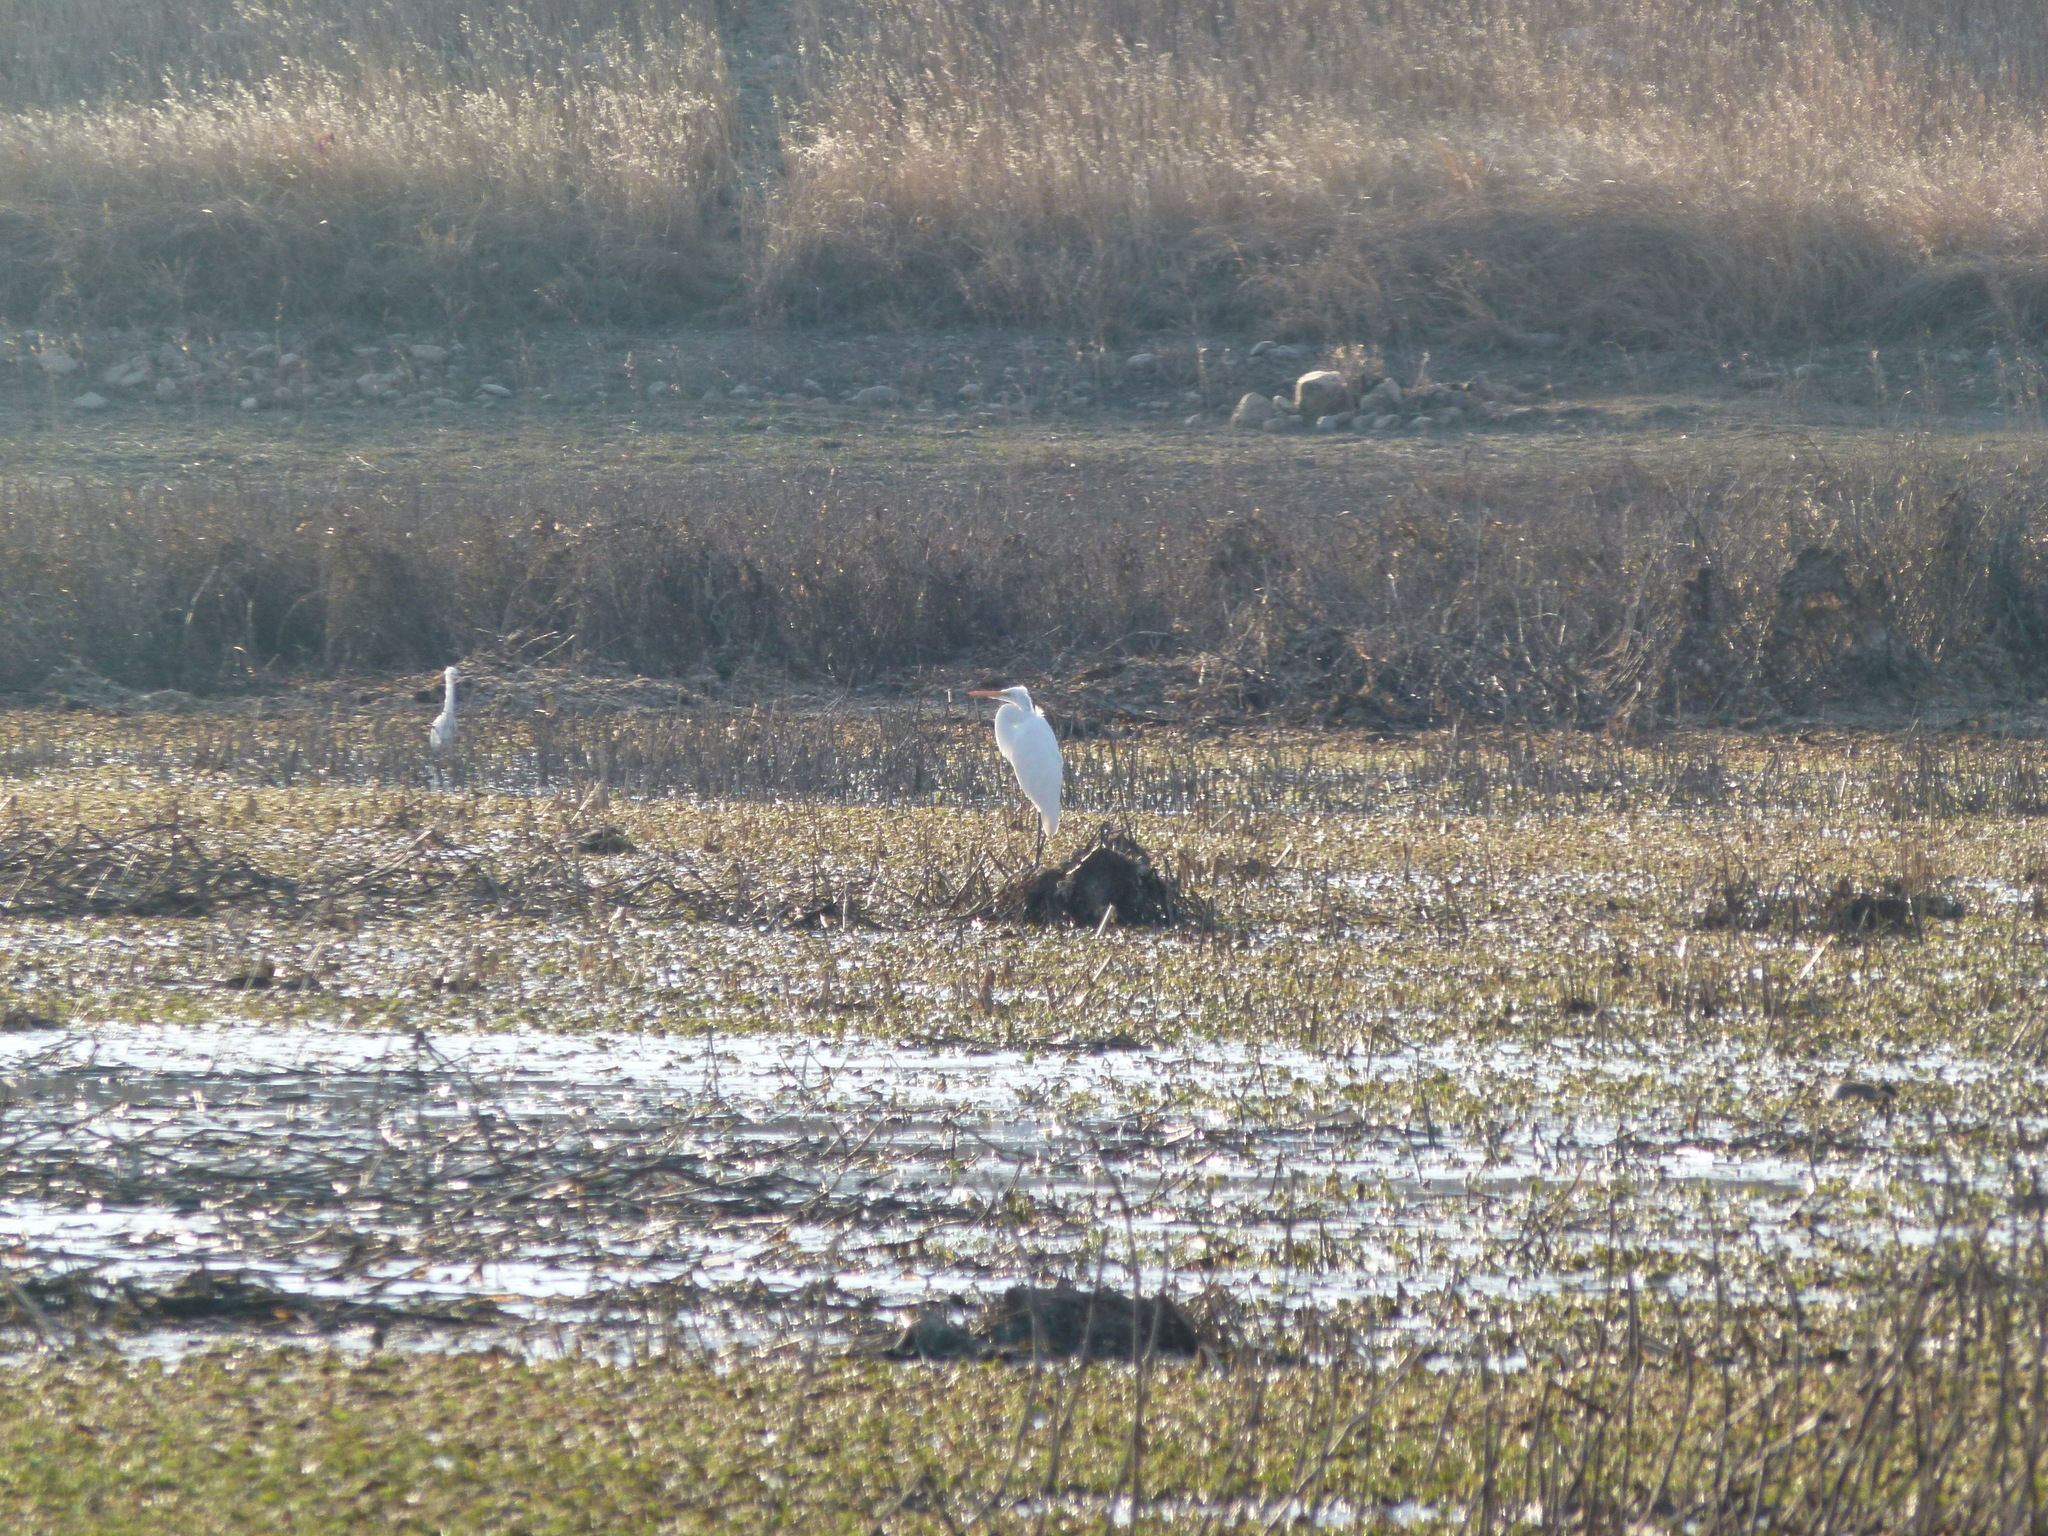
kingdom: Animalia
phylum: Chordata
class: Aves
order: Pelecaniformes
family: Ardeidae
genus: Ardea
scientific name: Ardea alba
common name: Great egret
